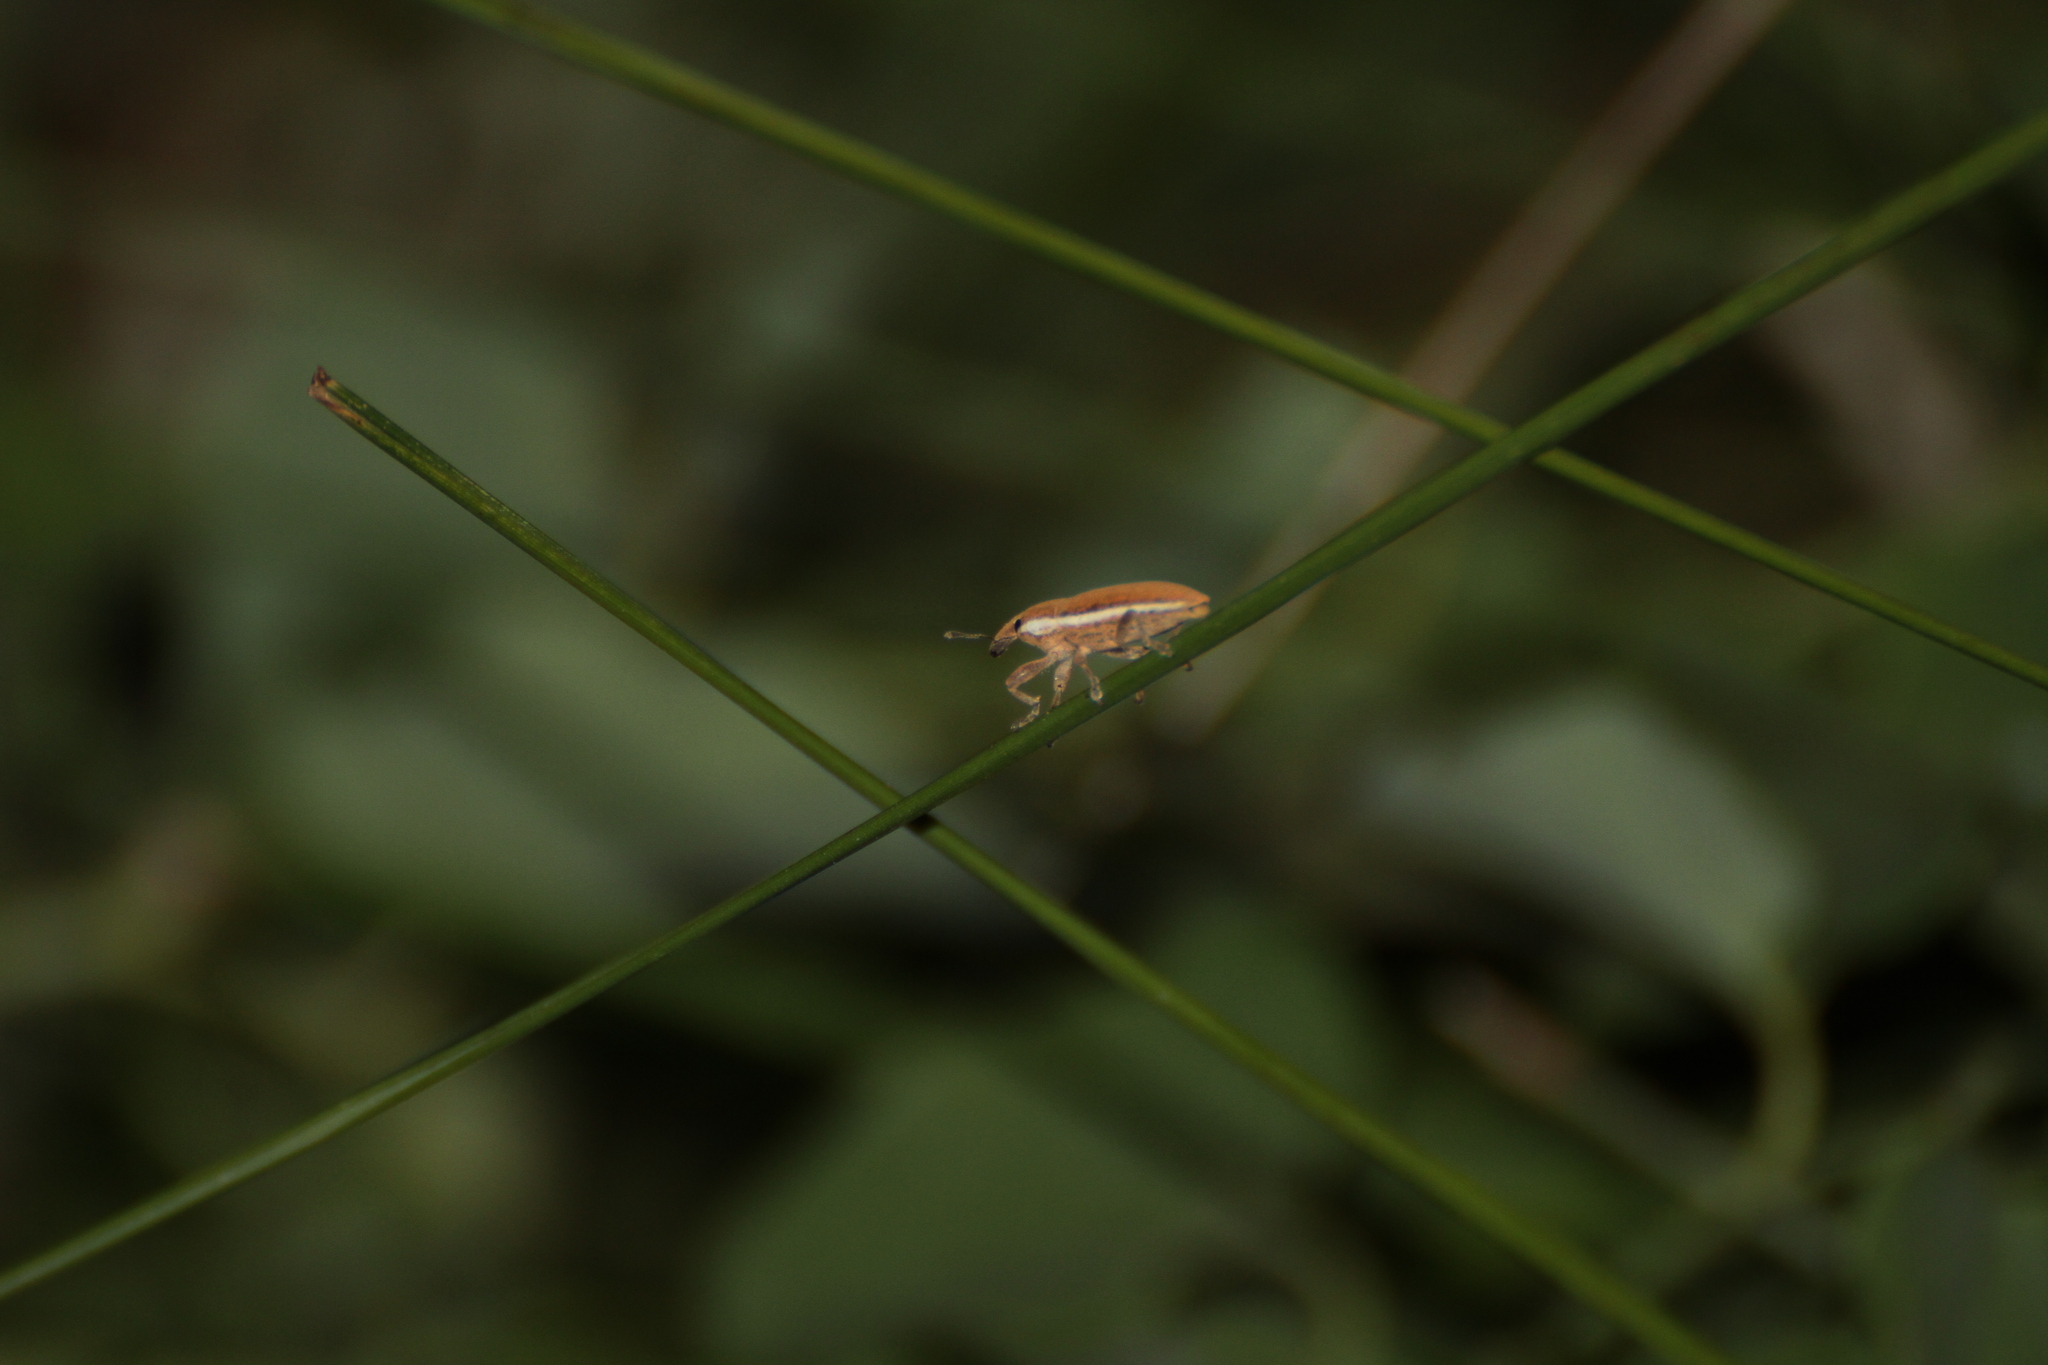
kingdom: Animalia
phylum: Arthropoda
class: Insecta
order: Coleoptera
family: Curculionidae
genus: Lixus
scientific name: Lixus ochraceus
